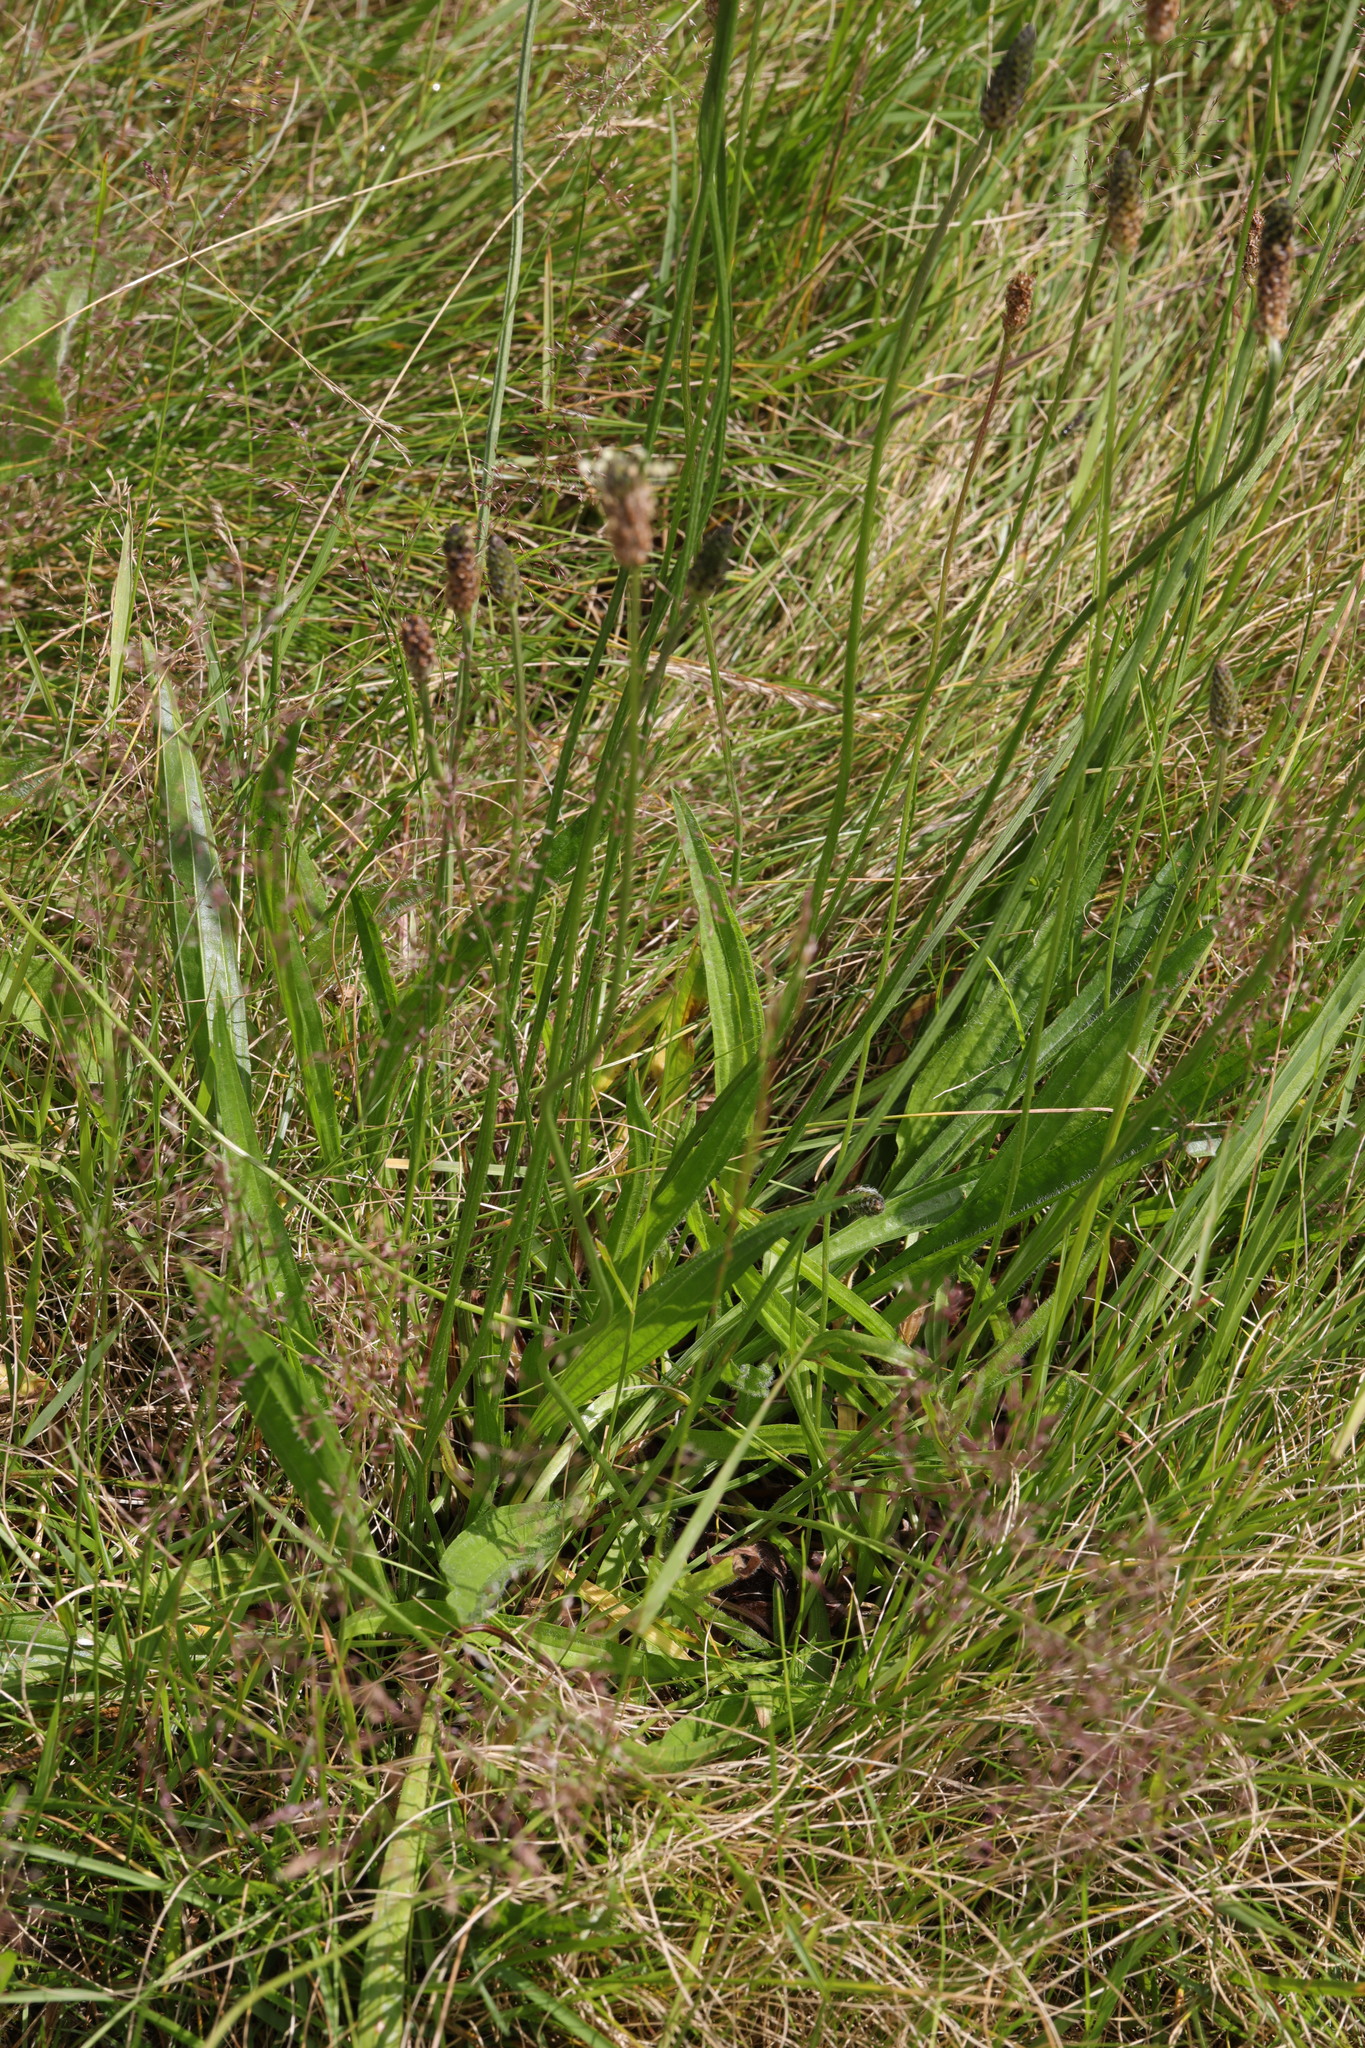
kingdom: Plantae
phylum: Tracheophyta
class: Magnoliopsida
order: Lamiales
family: Plantaginaceae
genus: Plantago
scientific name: Plantago lanceolata
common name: Ribwort plantain
